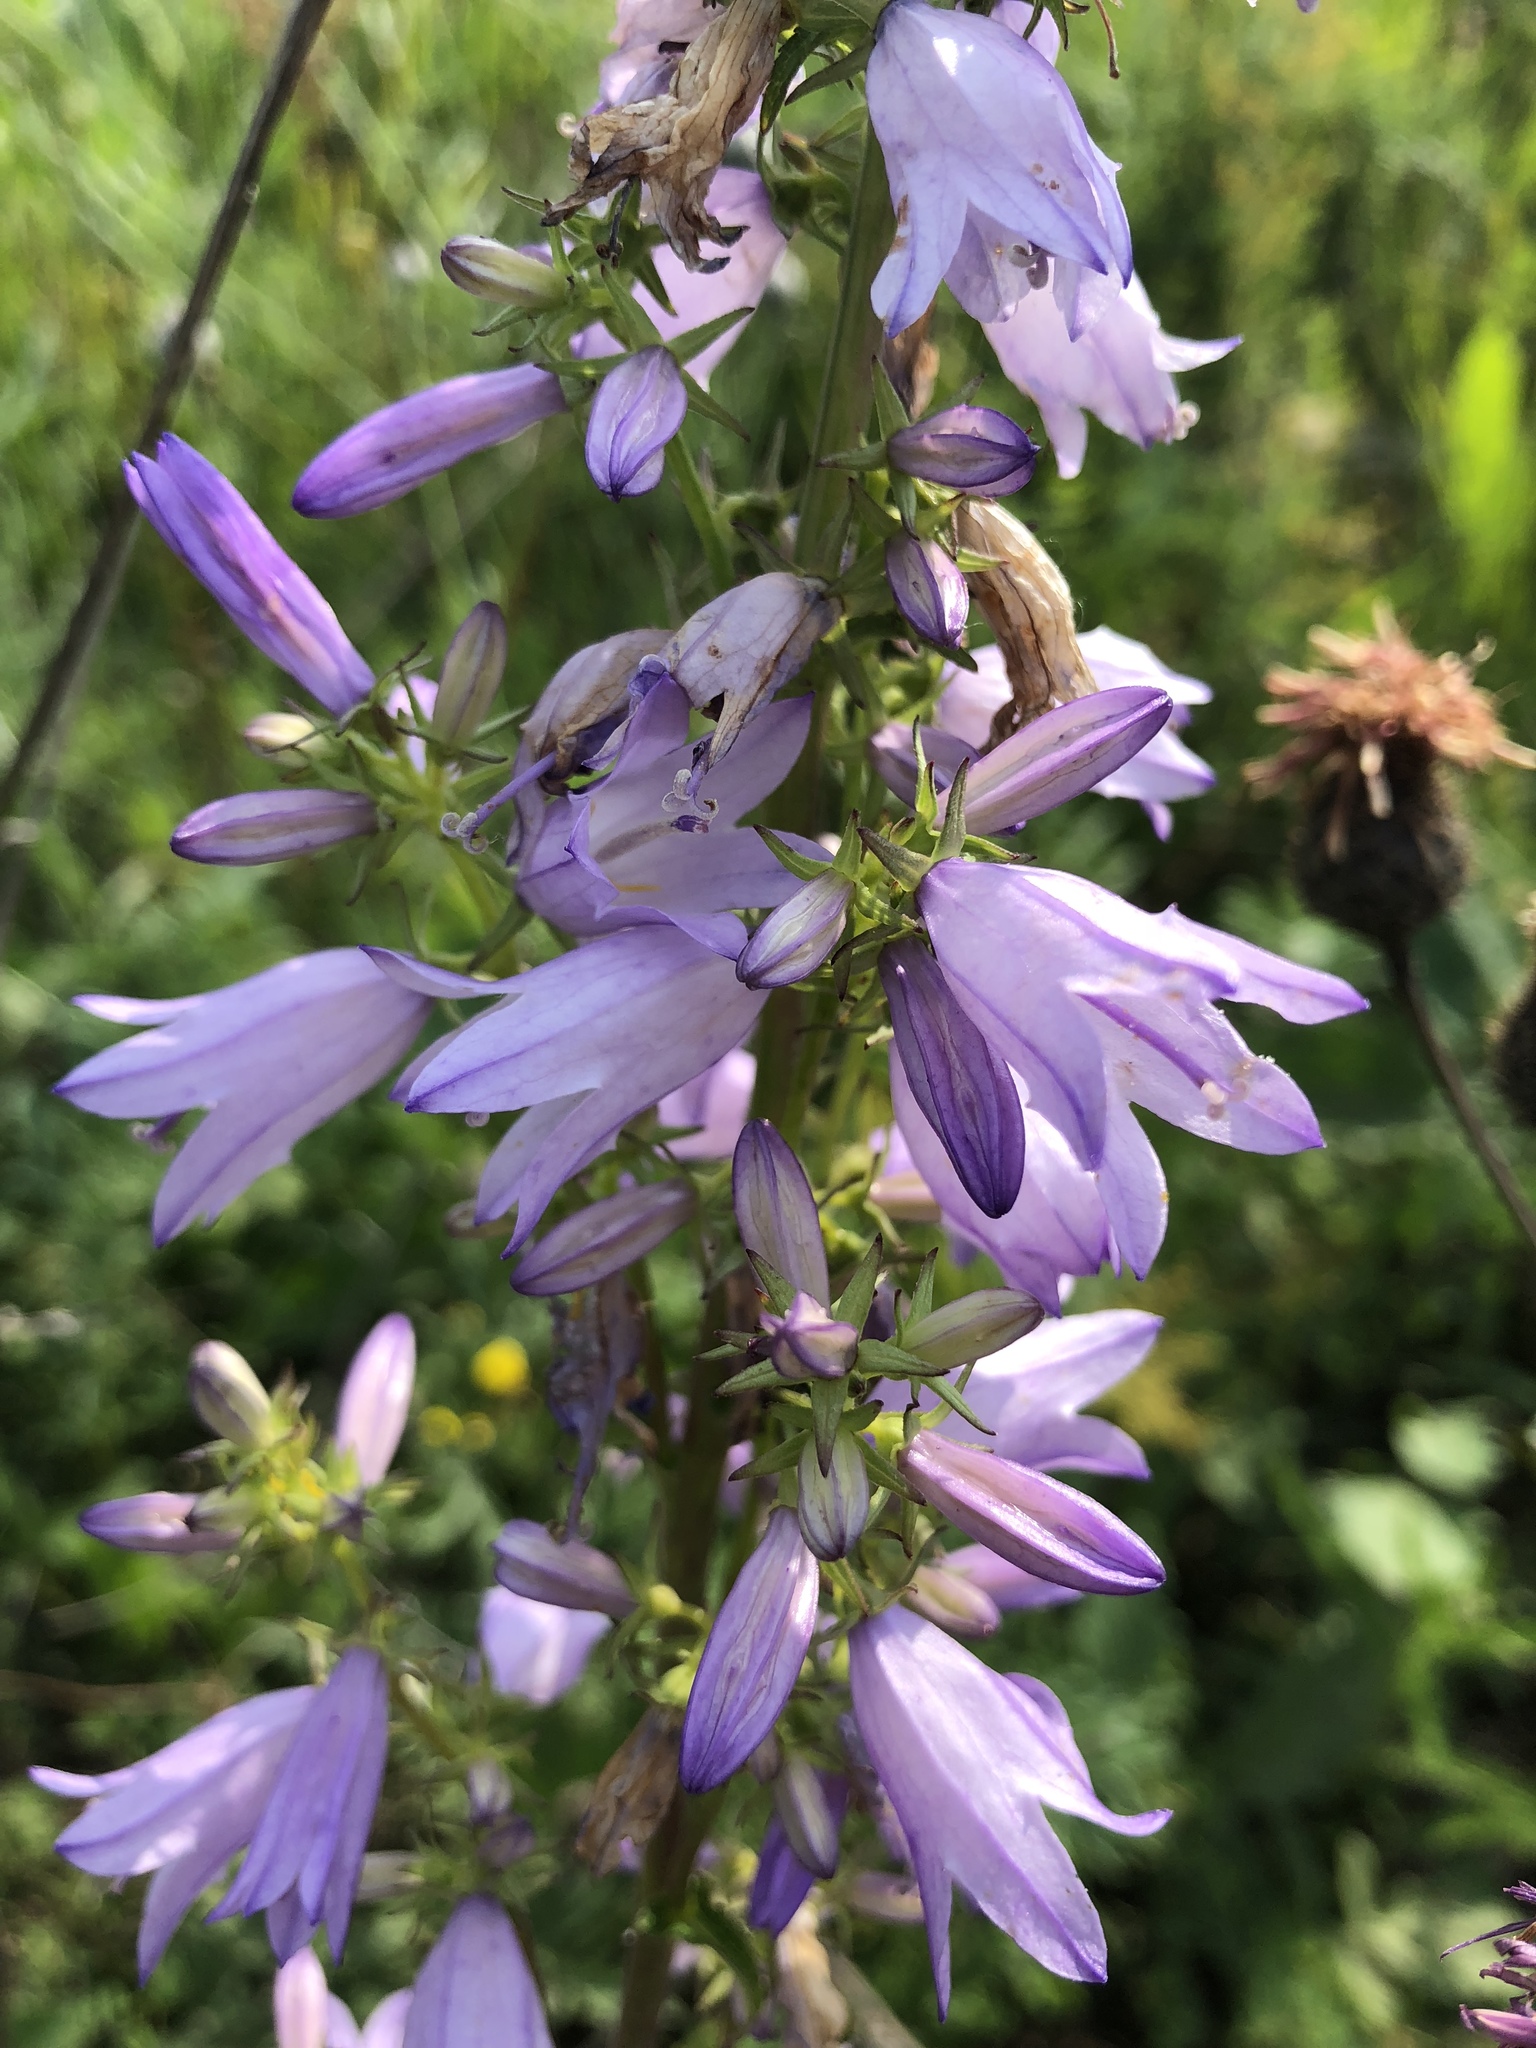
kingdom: Plantae
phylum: Tracheophyta
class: Magnoliopsida
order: Asterales
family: Campanulaceae
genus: Campanula
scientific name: Campanula bononiensis
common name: Pale bellflower
